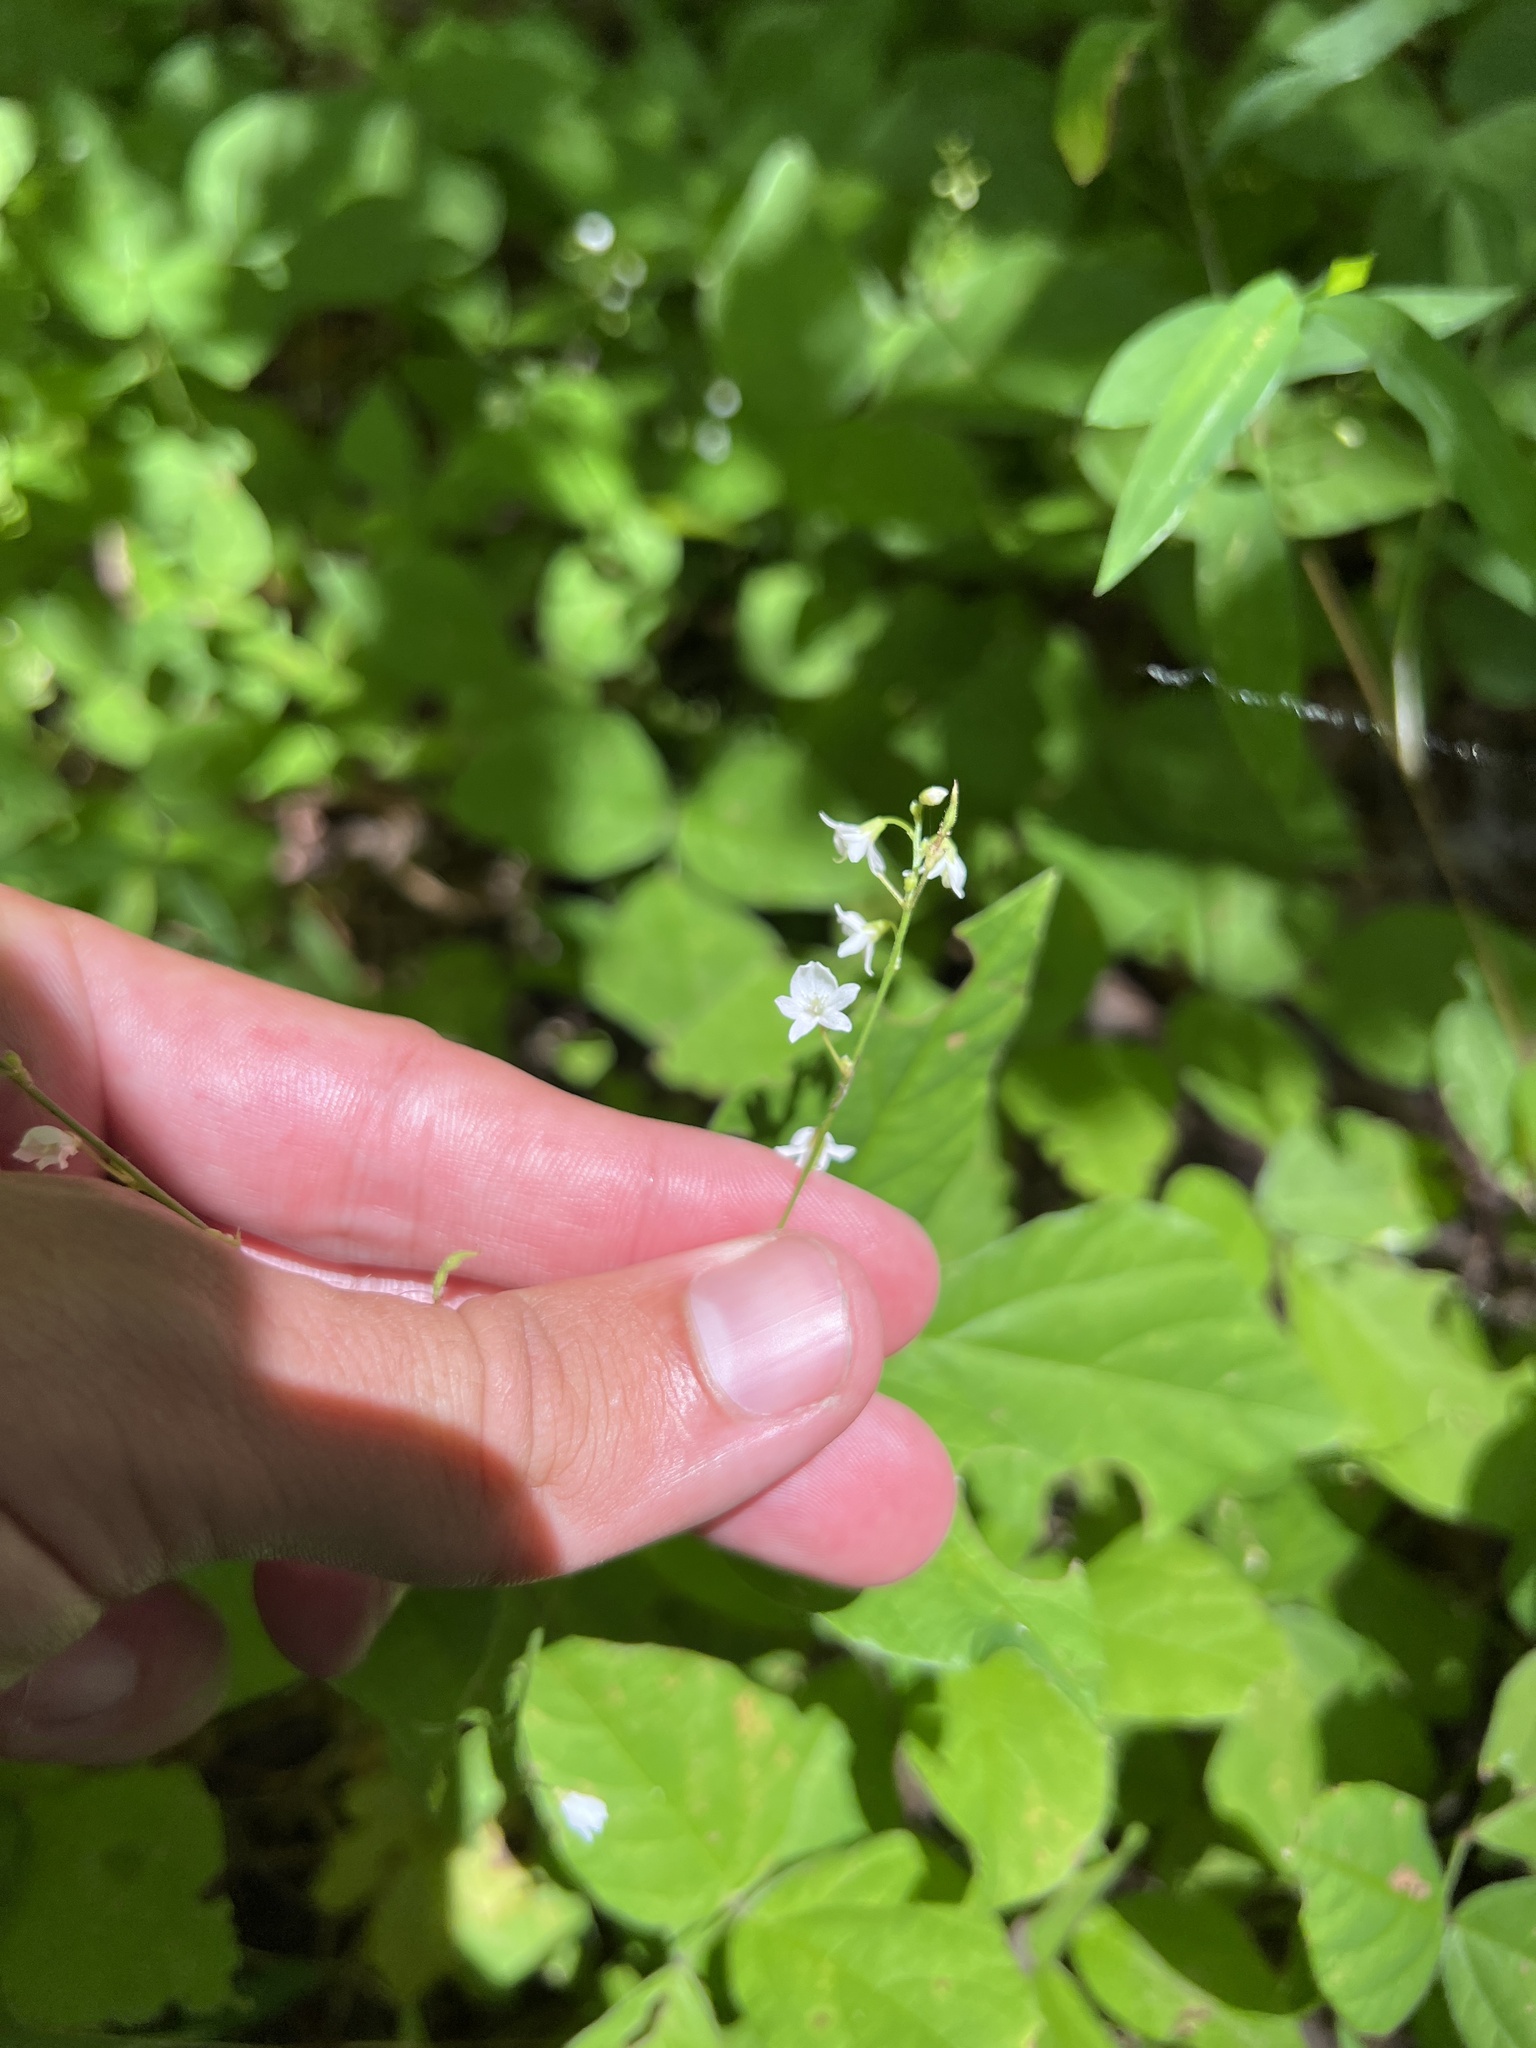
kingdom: Plantae
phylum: Tracheophyta
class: Magnoliopsida
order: Fabales
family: Fabaceae
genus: Hylodesmum
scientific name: Hylodesmum pauciflorum
